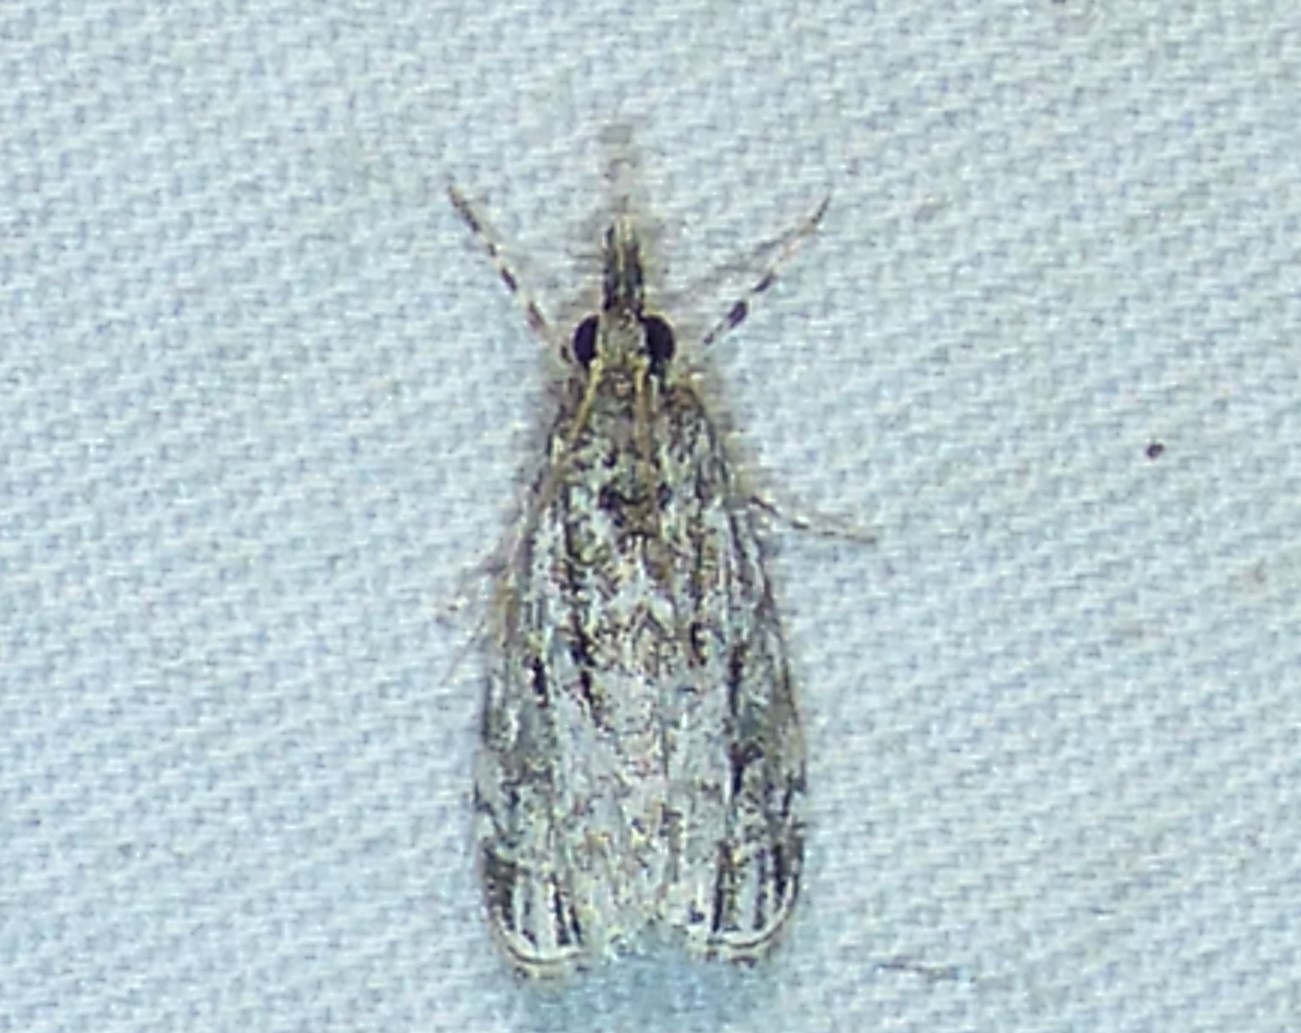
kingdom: Animalia
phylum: Arthropoda
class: Insecta
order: Lepidoptera
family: Crambidae
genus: Eudonia
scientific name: Eudonia strigalis
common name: Striped eudonia moth
